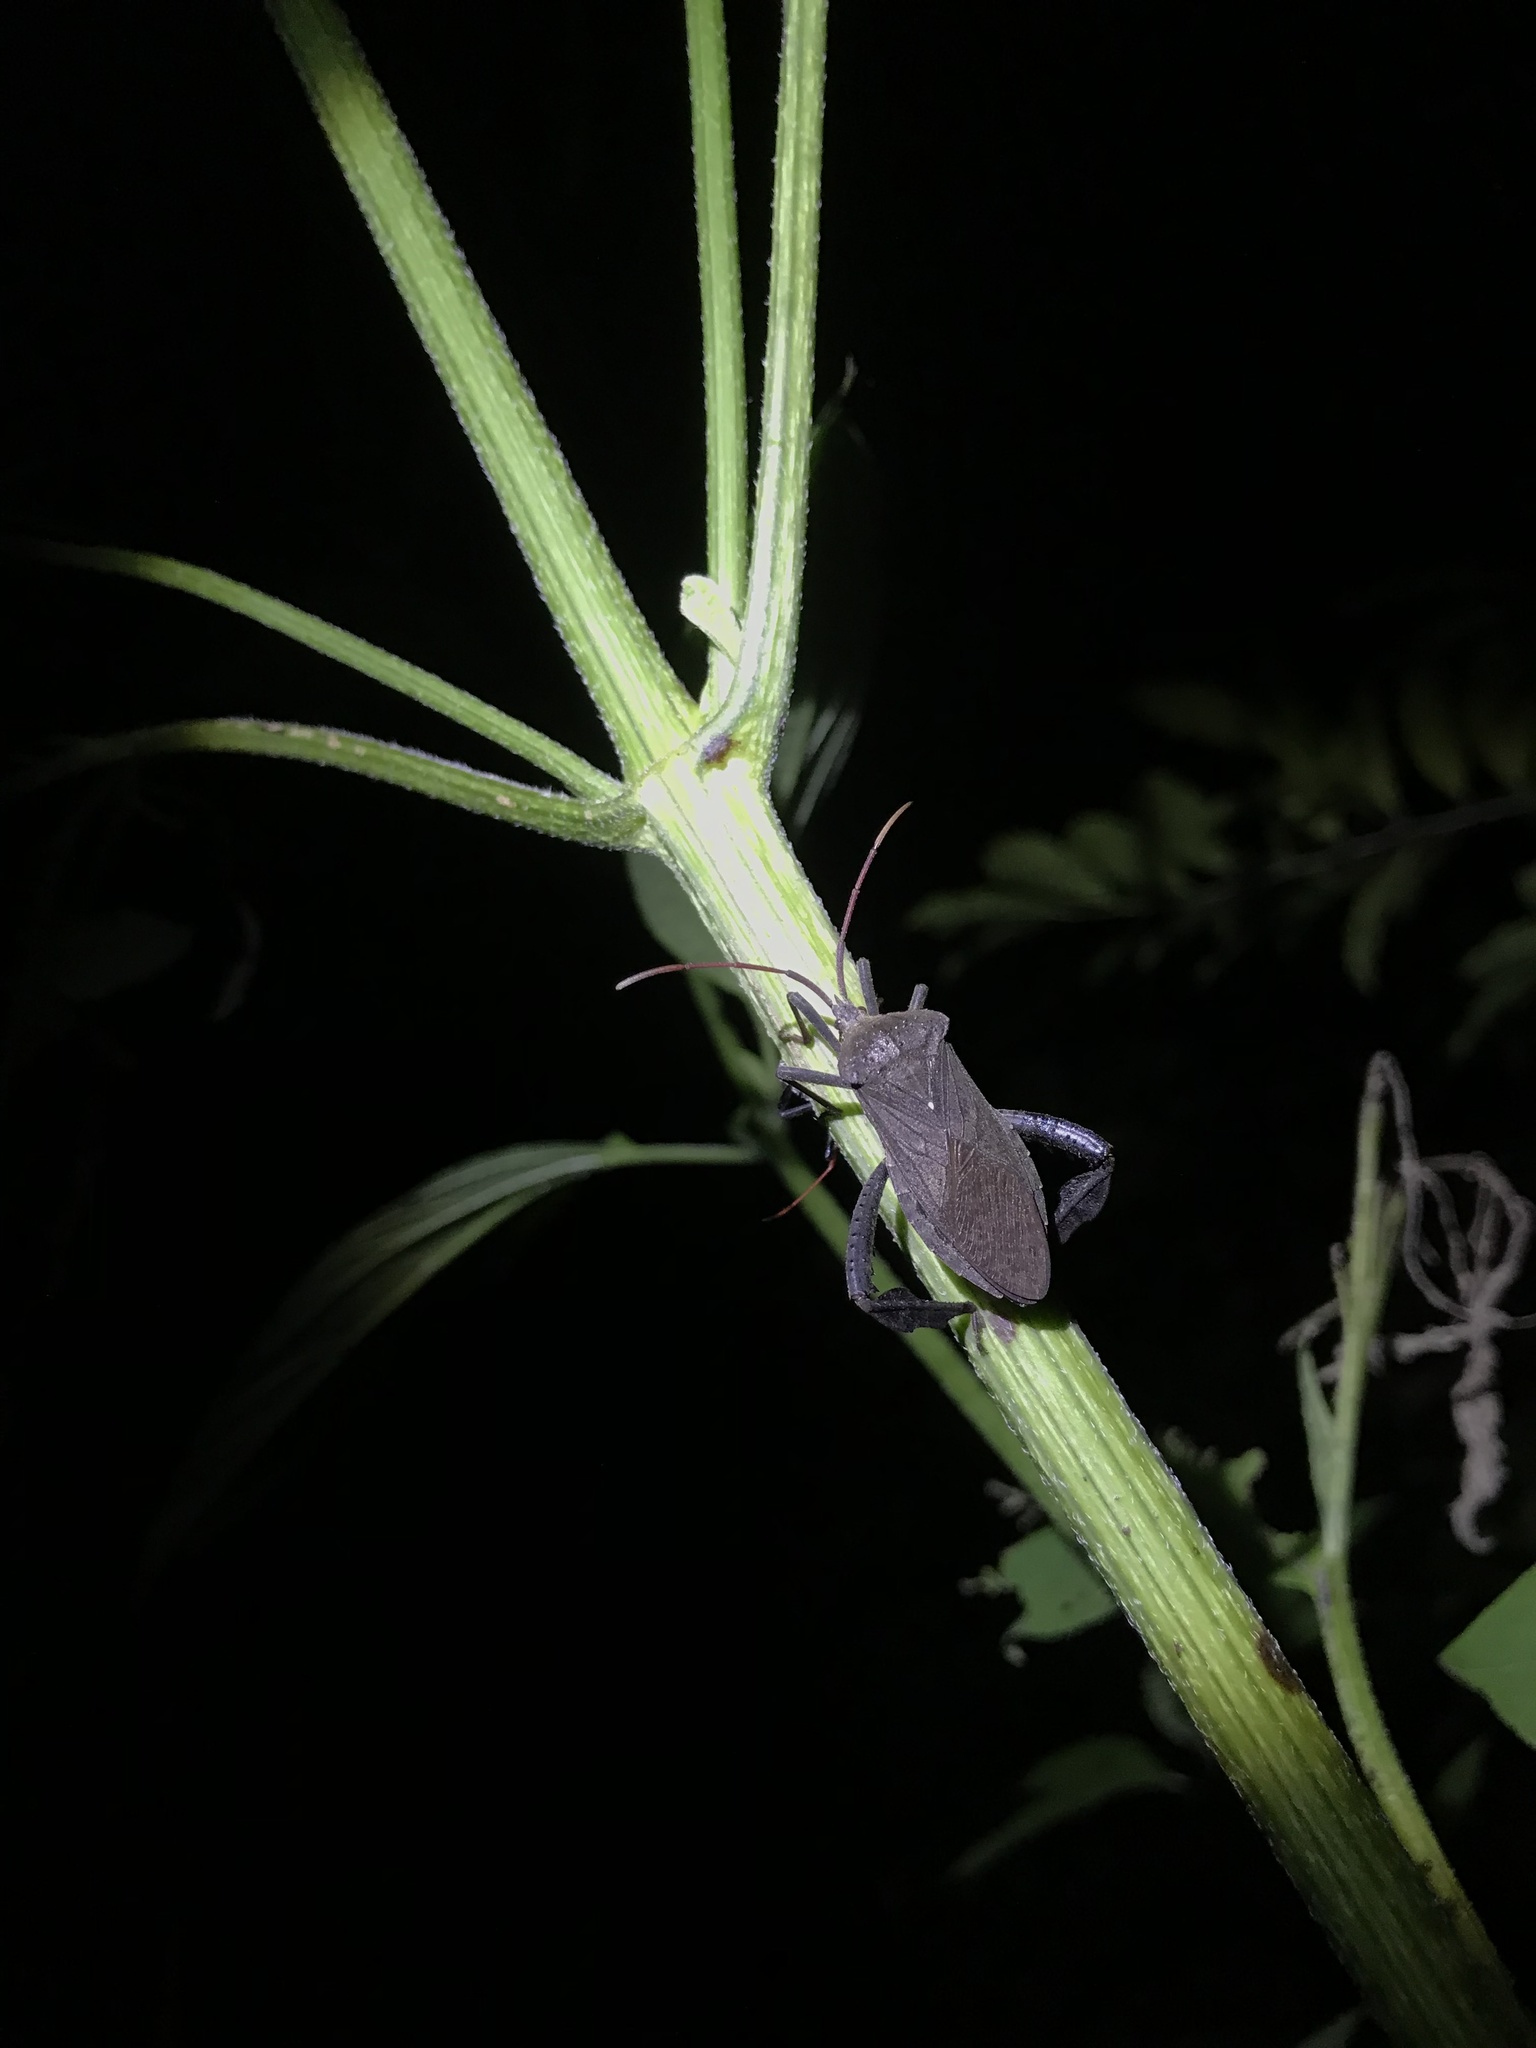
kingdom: Animalia
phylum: Arthropoda
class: Insecta
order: Hemiptera
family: Coreidae
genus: Acanthocephala
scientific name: Acanthocephala femorata
